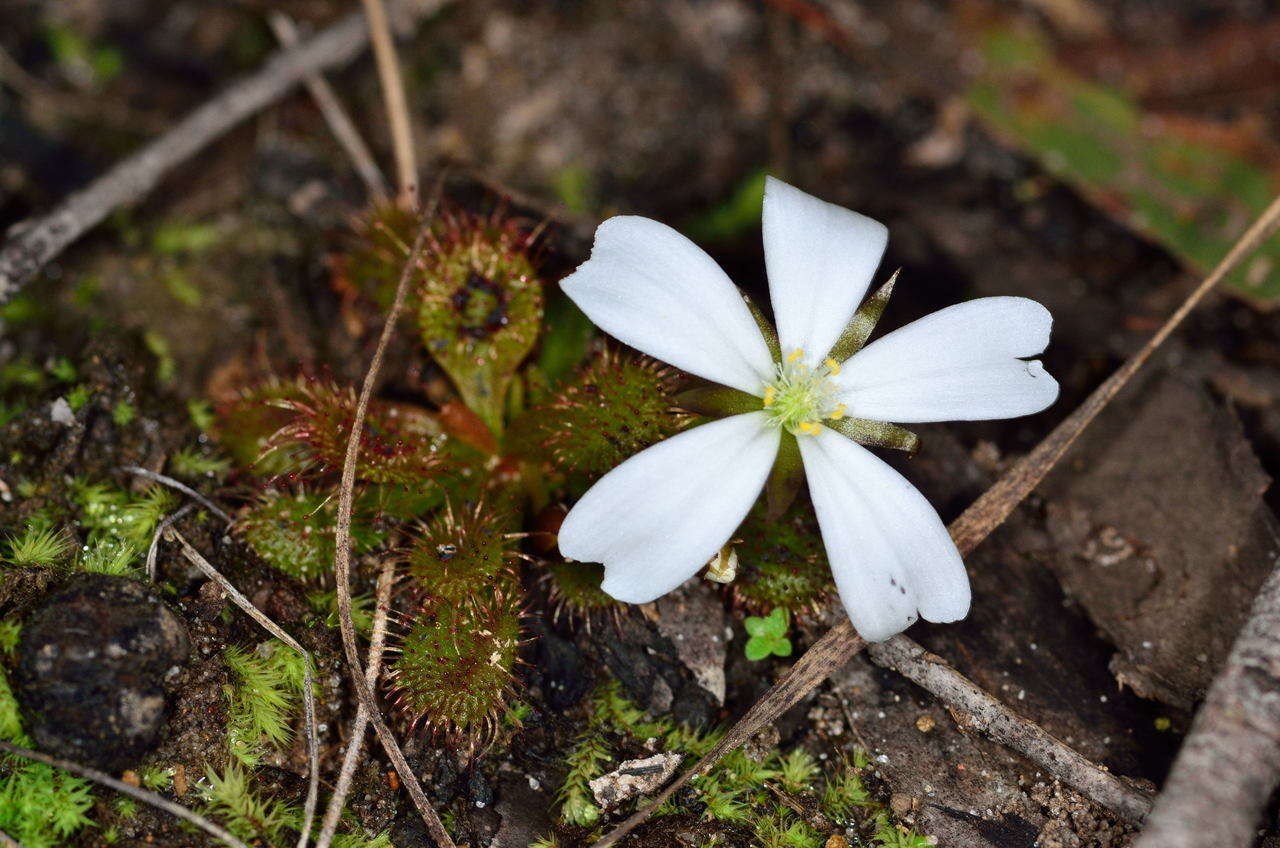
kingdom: Plantae
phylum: Tracheophyta
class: Magnoliopsida
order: Caryophyllales
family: Droseraceae
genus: Drosera
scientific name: Drosera aberrans
